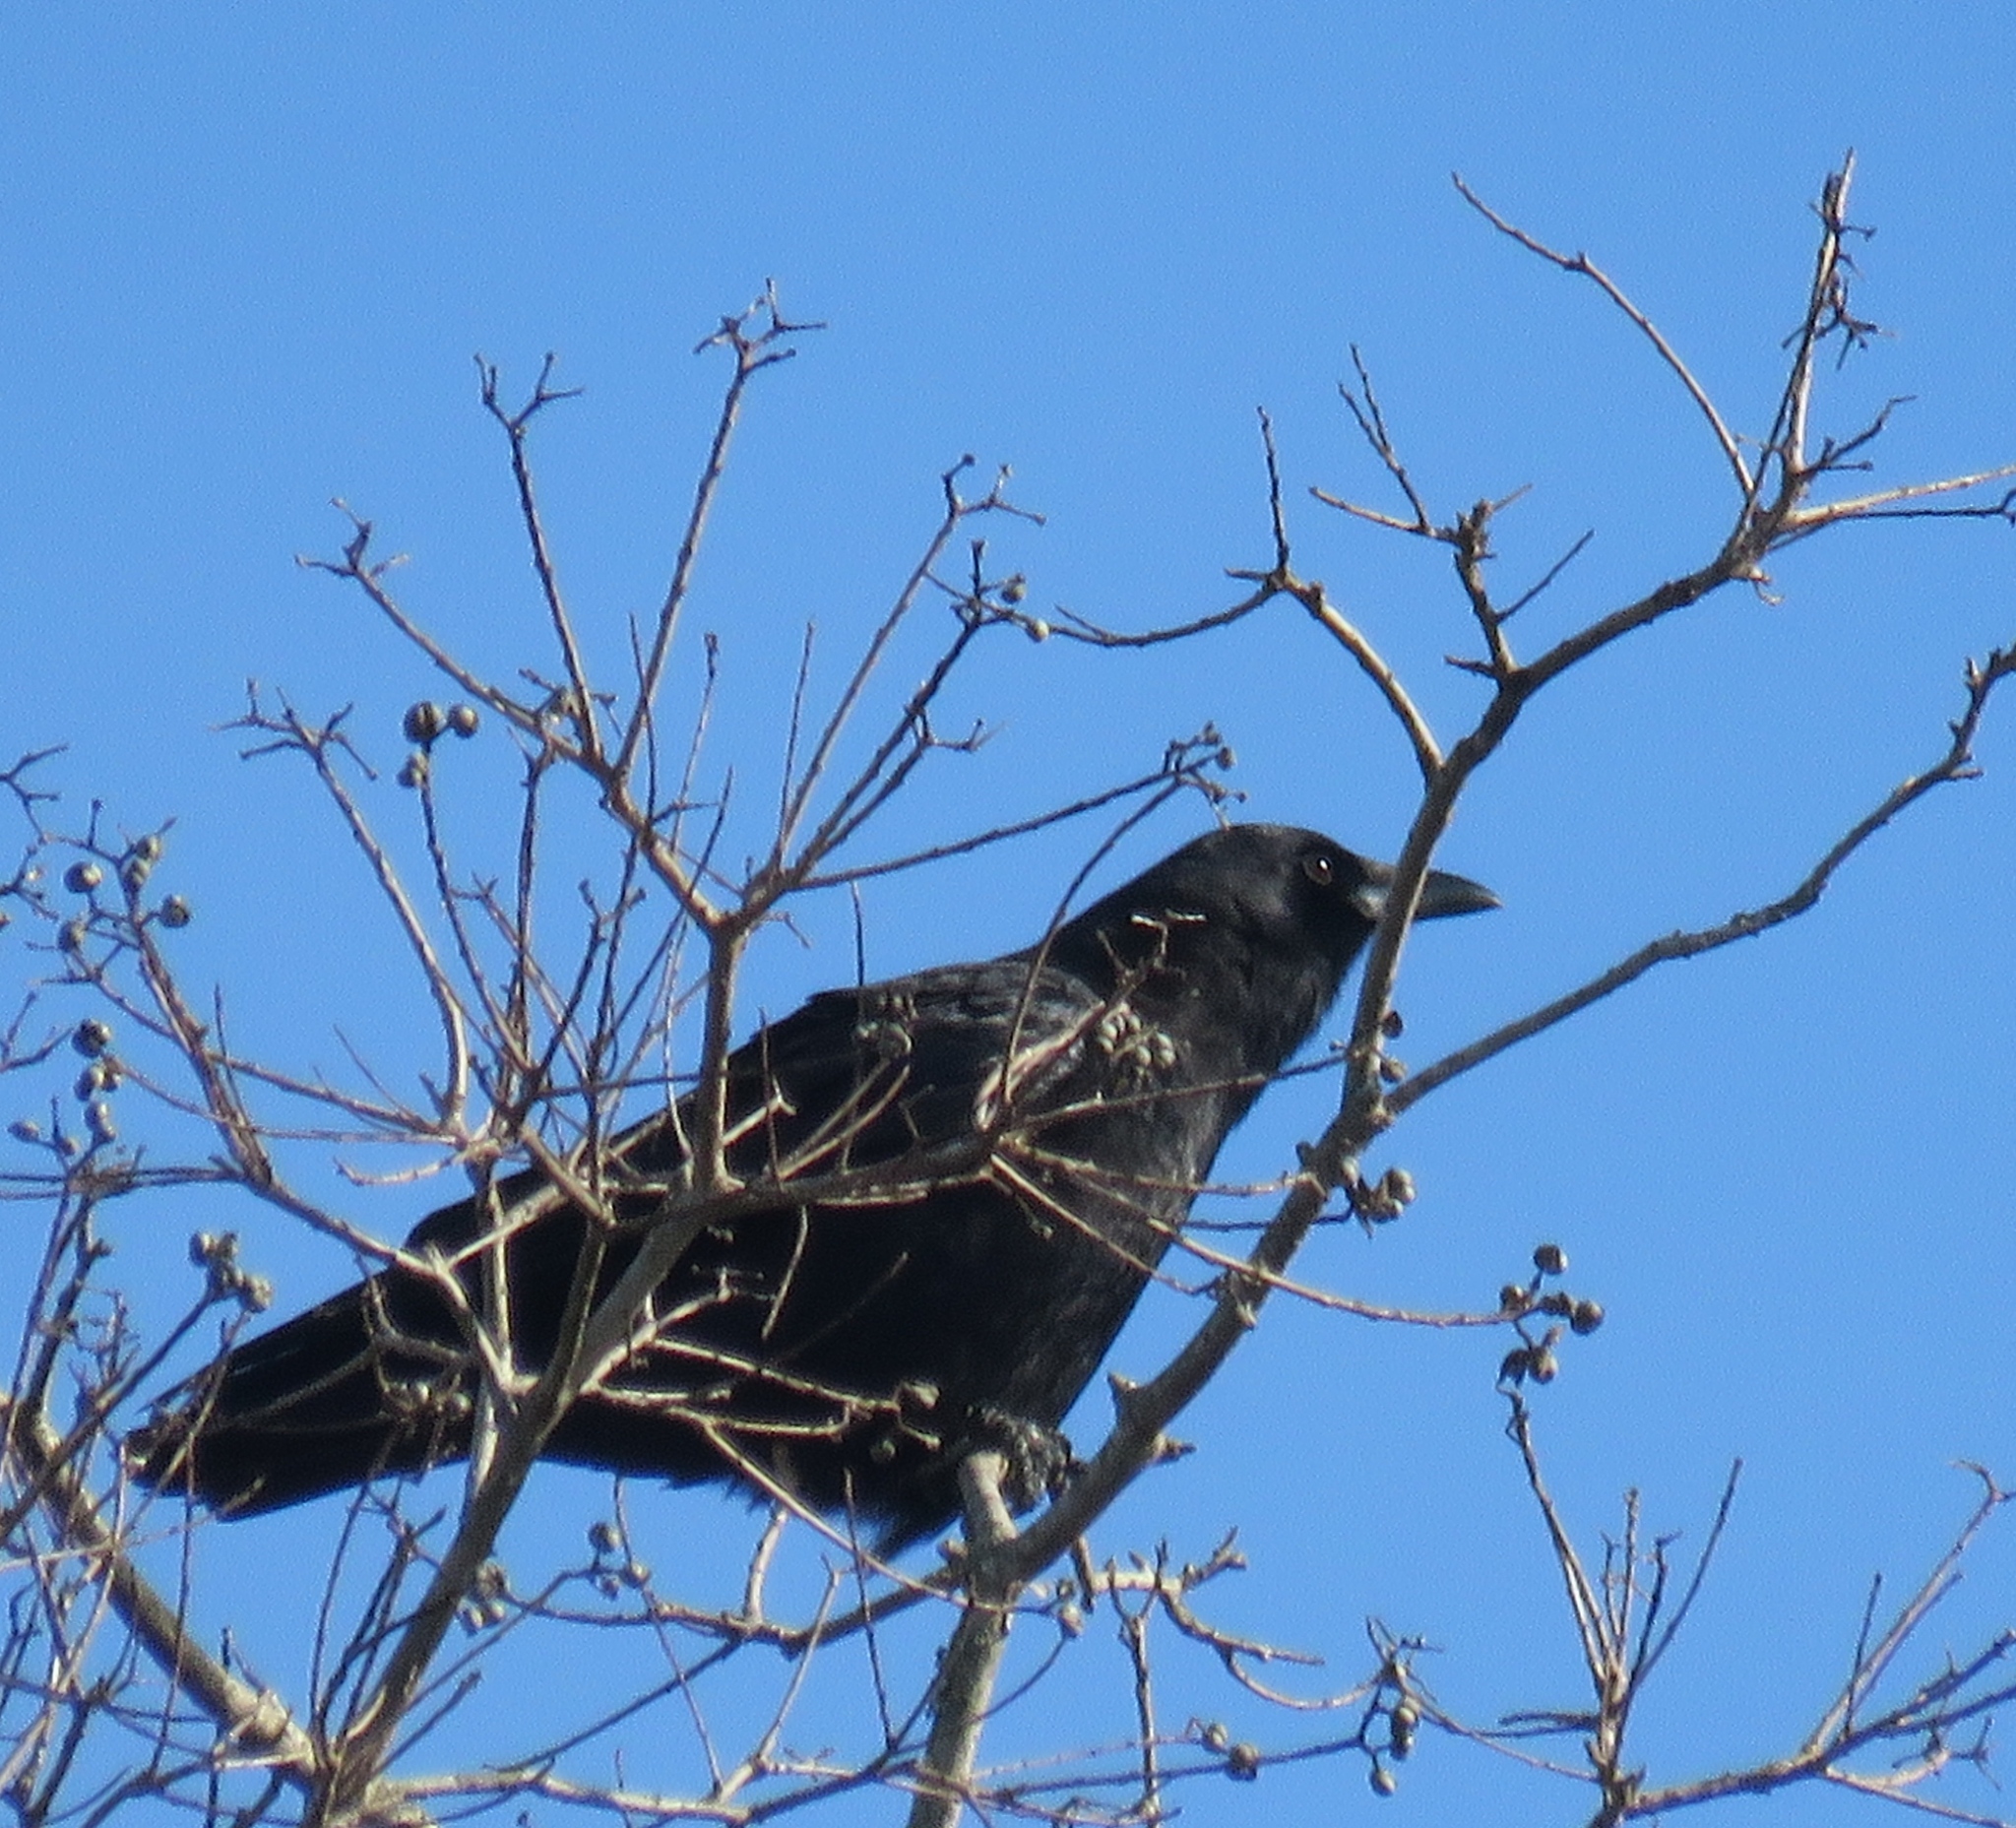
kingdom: Animalia
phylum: Chordata
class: Aves
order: Passeriformes
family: Corvidae
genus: Corvus
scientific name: Corvus brachyrhynchos
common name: American crow
